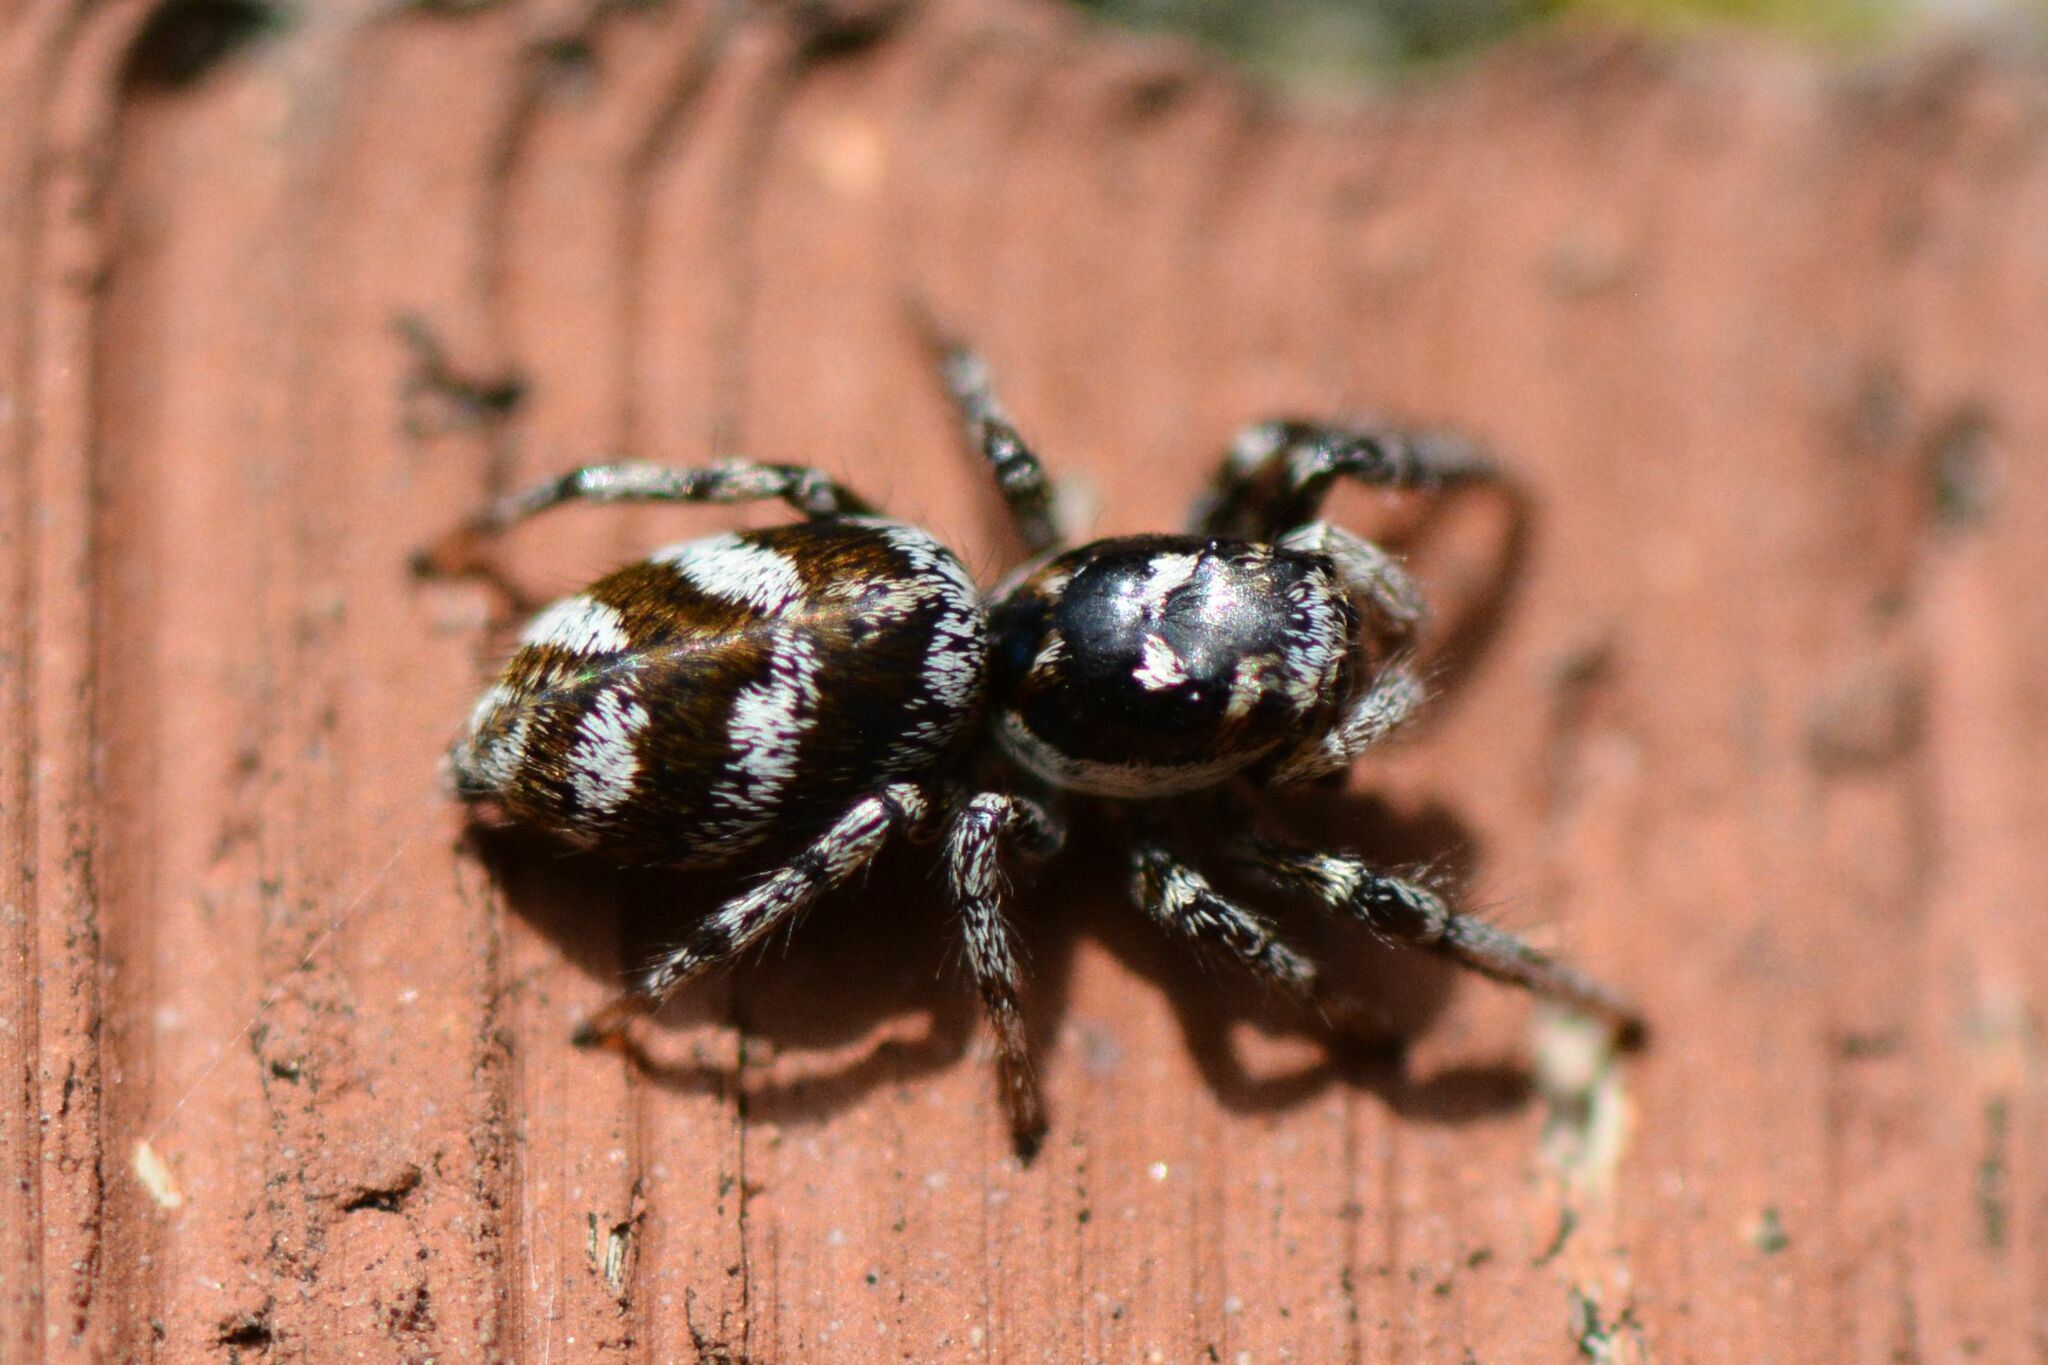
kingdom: Animalia
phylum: Arthropoda
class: Arachnida
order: Araneae
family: Salticidae
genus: Salticus
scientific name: Salticus scenicus
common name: Zebra jumper
